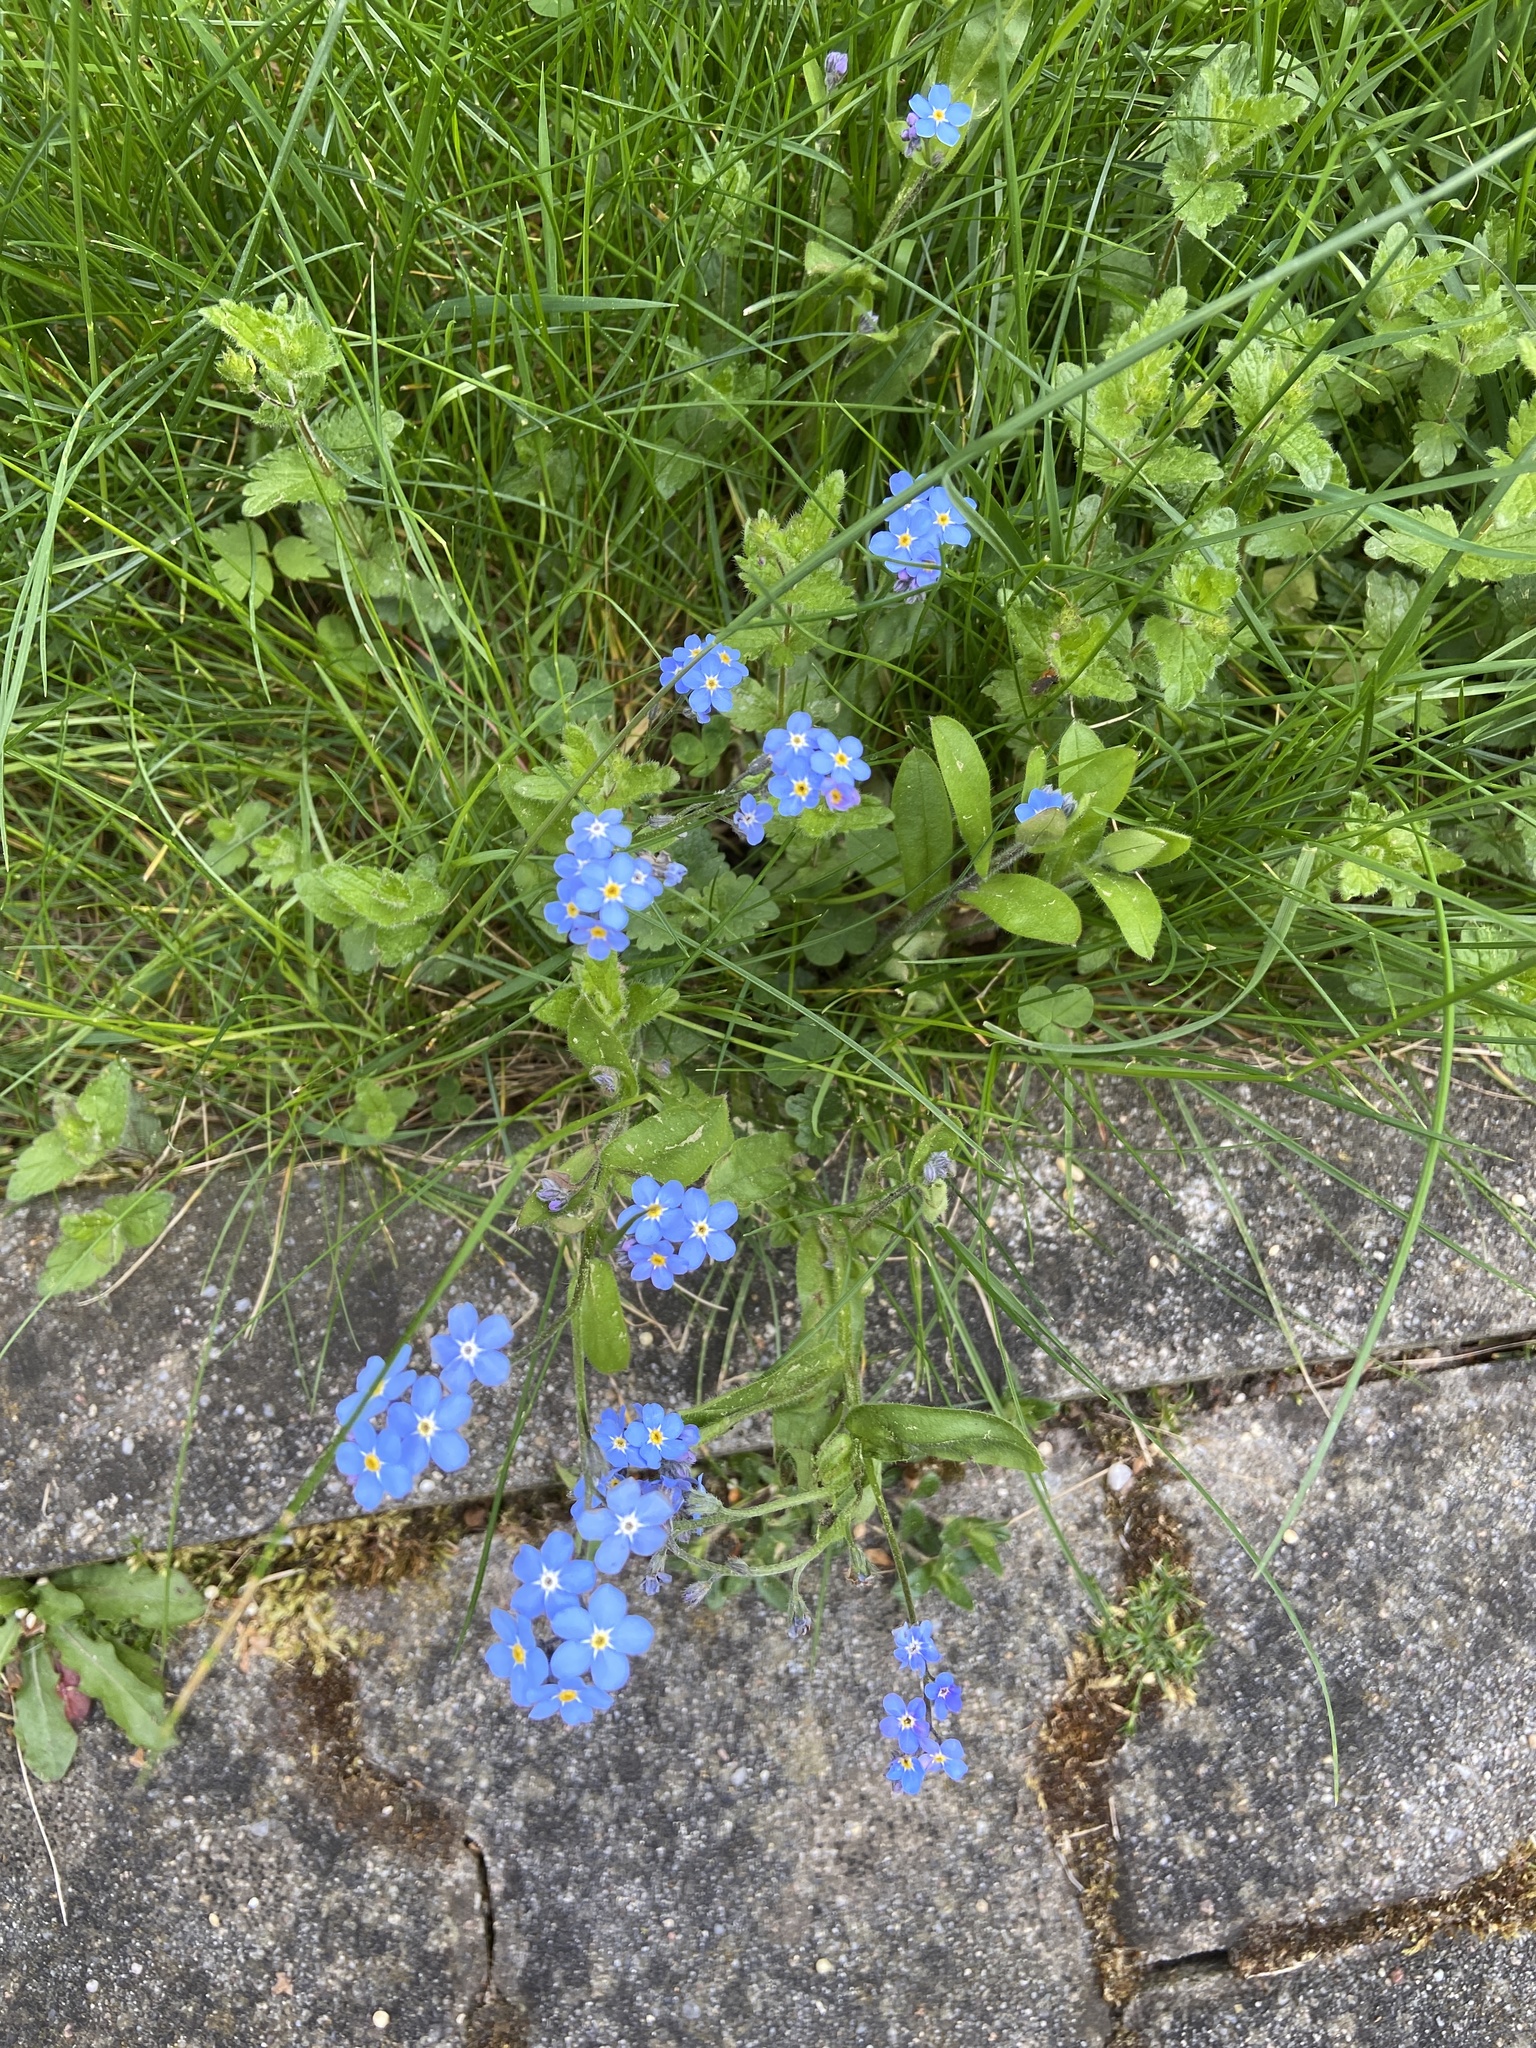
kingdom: Plantae
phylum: Tracheophyta
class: Magnoliopsida
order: Boraginales
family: Boraginaceae
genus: Myosotis
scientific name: Myosotis sylvatica
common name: Wood forget-me-not
